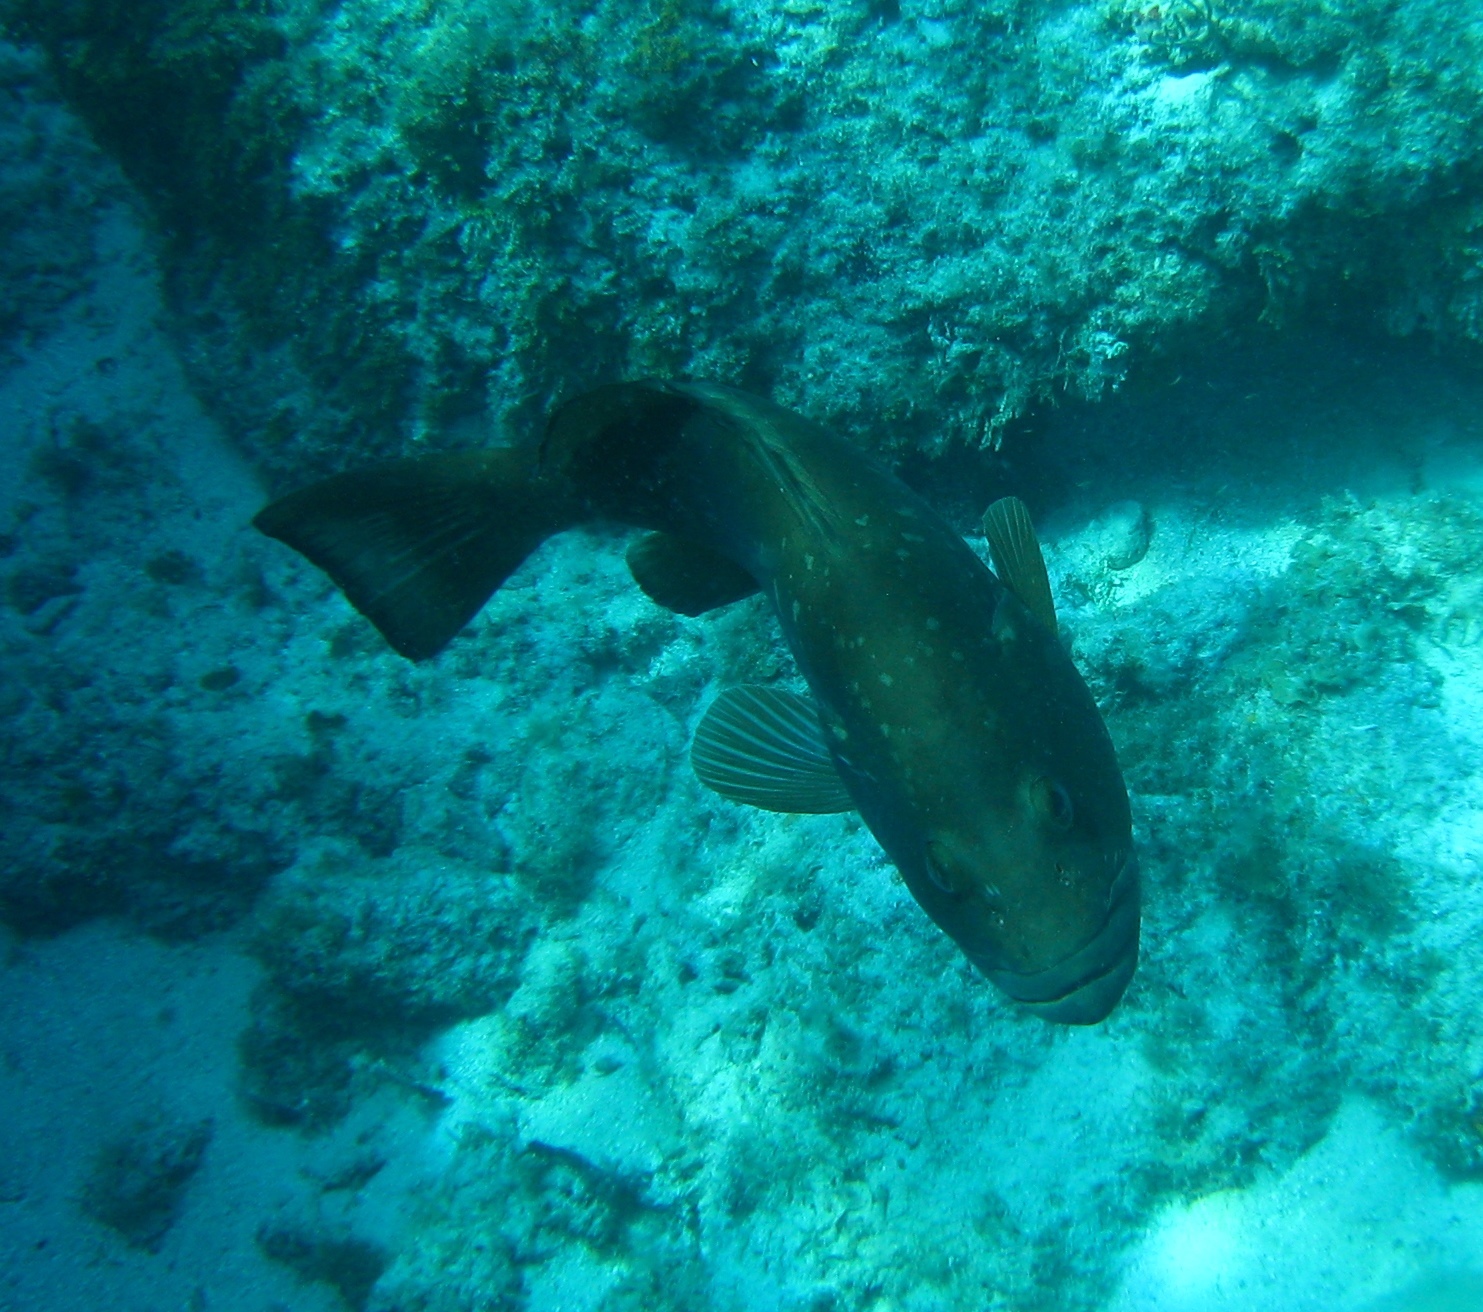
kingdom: Animalia
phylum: Chordata
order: Perciformes
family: Serranidae
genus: Epinephelus
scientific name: Epinephelus morio
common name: Red grouper
